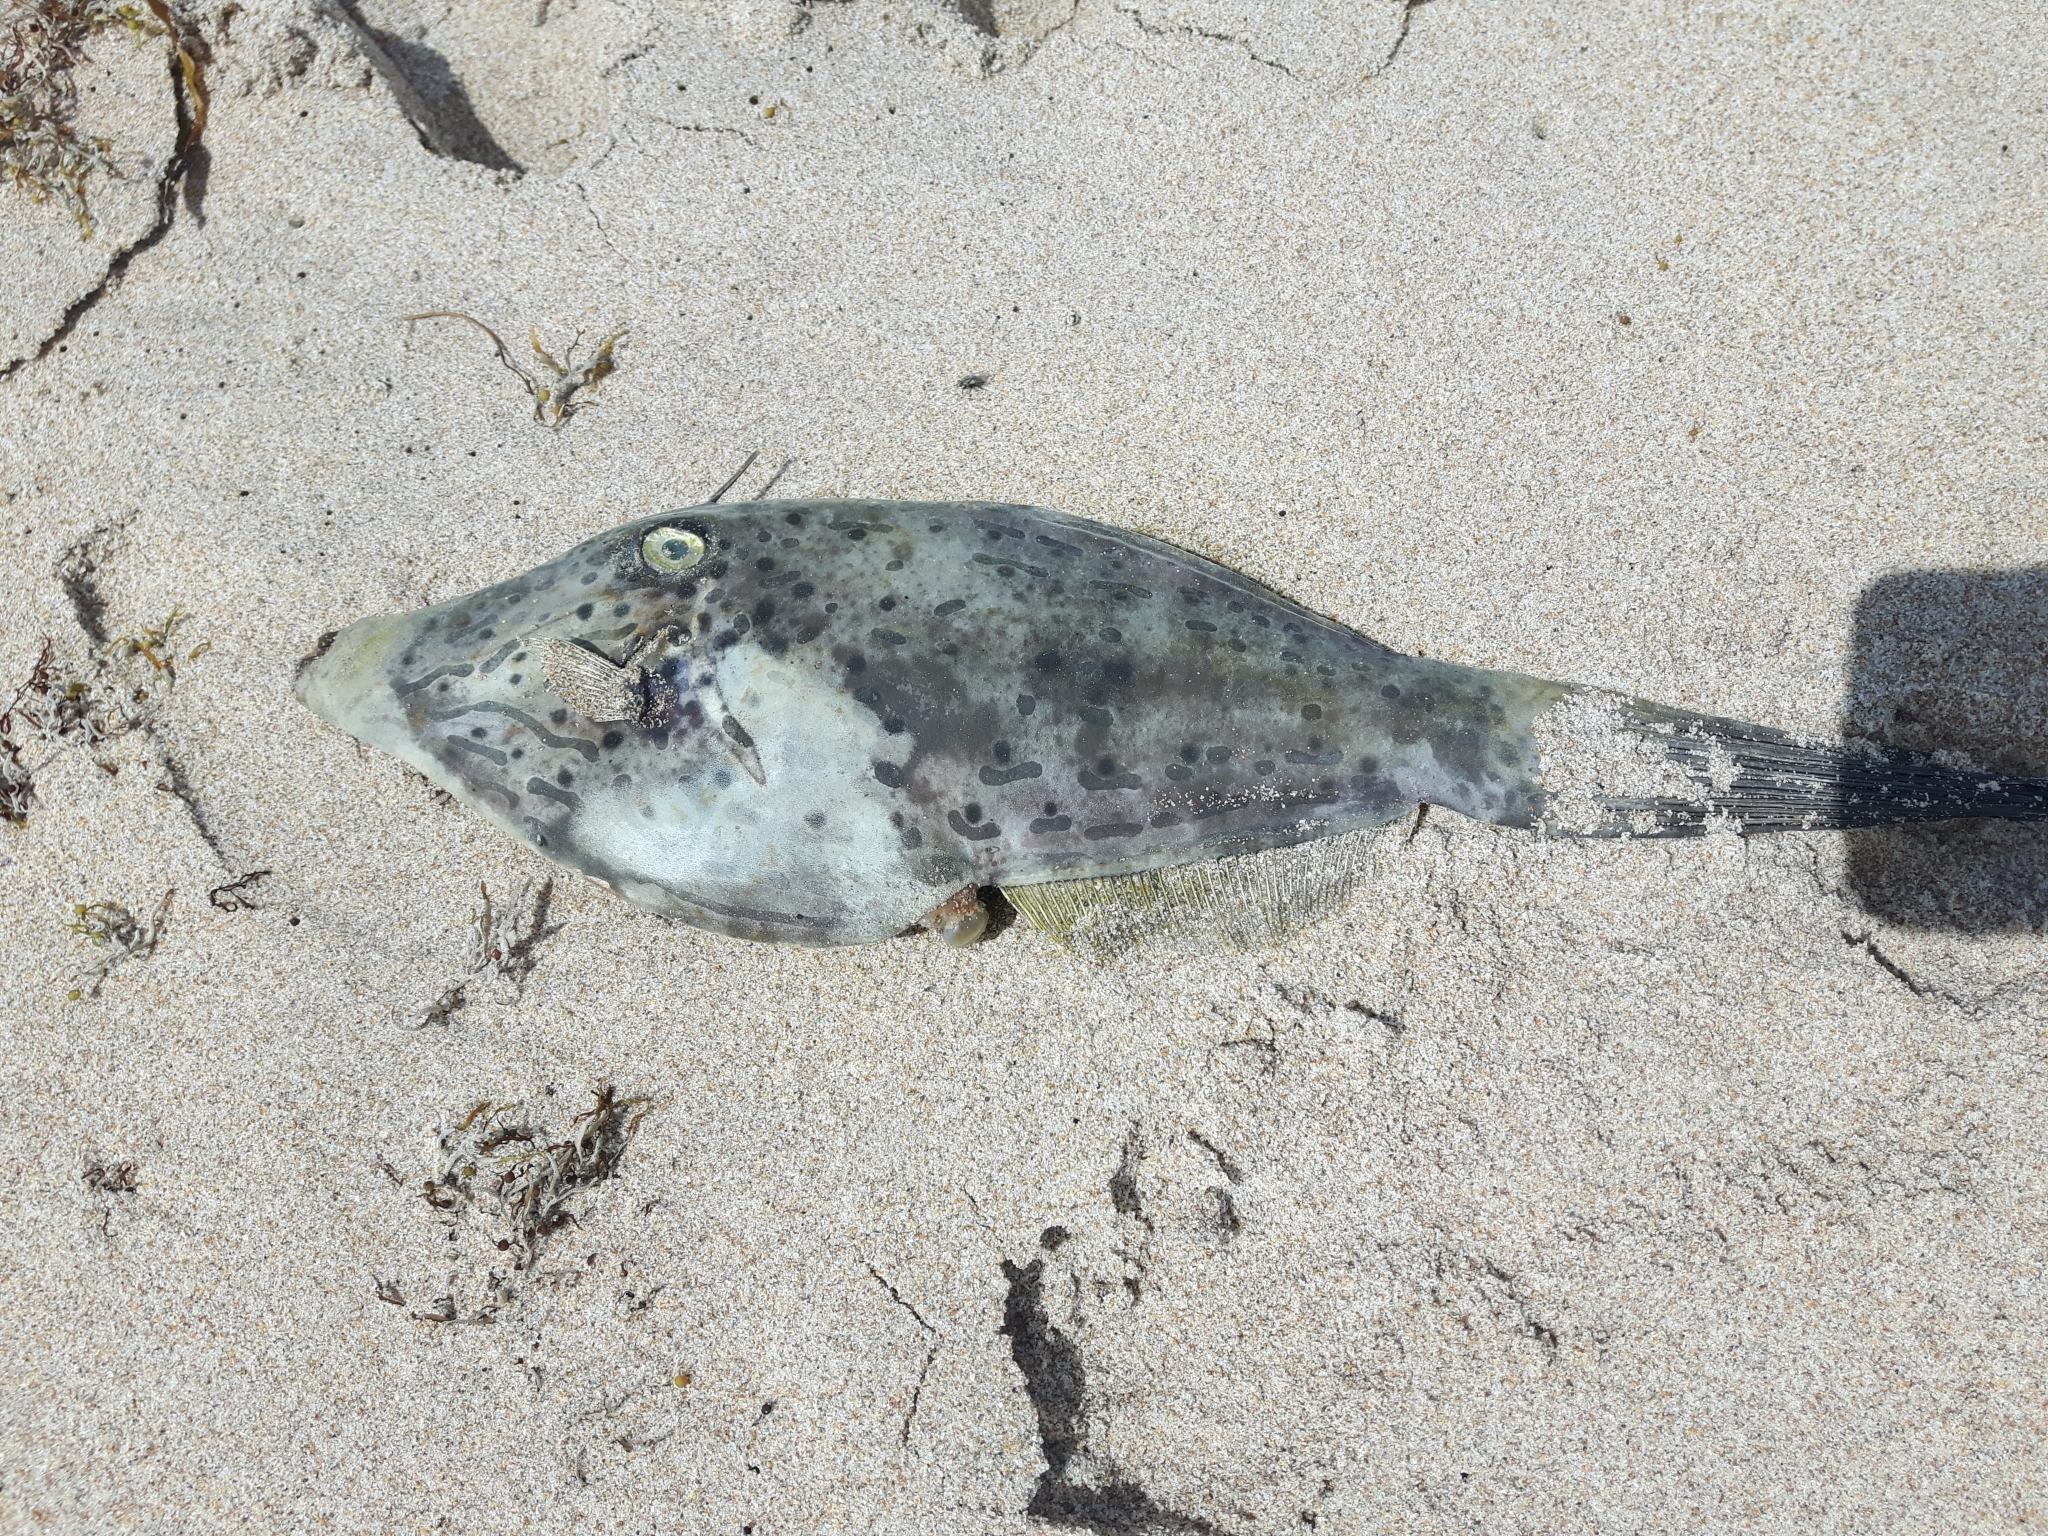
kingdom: Animalia
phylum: Chordata
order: Tetraodontiformes
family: Monacanthidae
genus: Aluterus
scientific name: Aluterus scriptus
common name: Scribbled leatherjacket filefish
